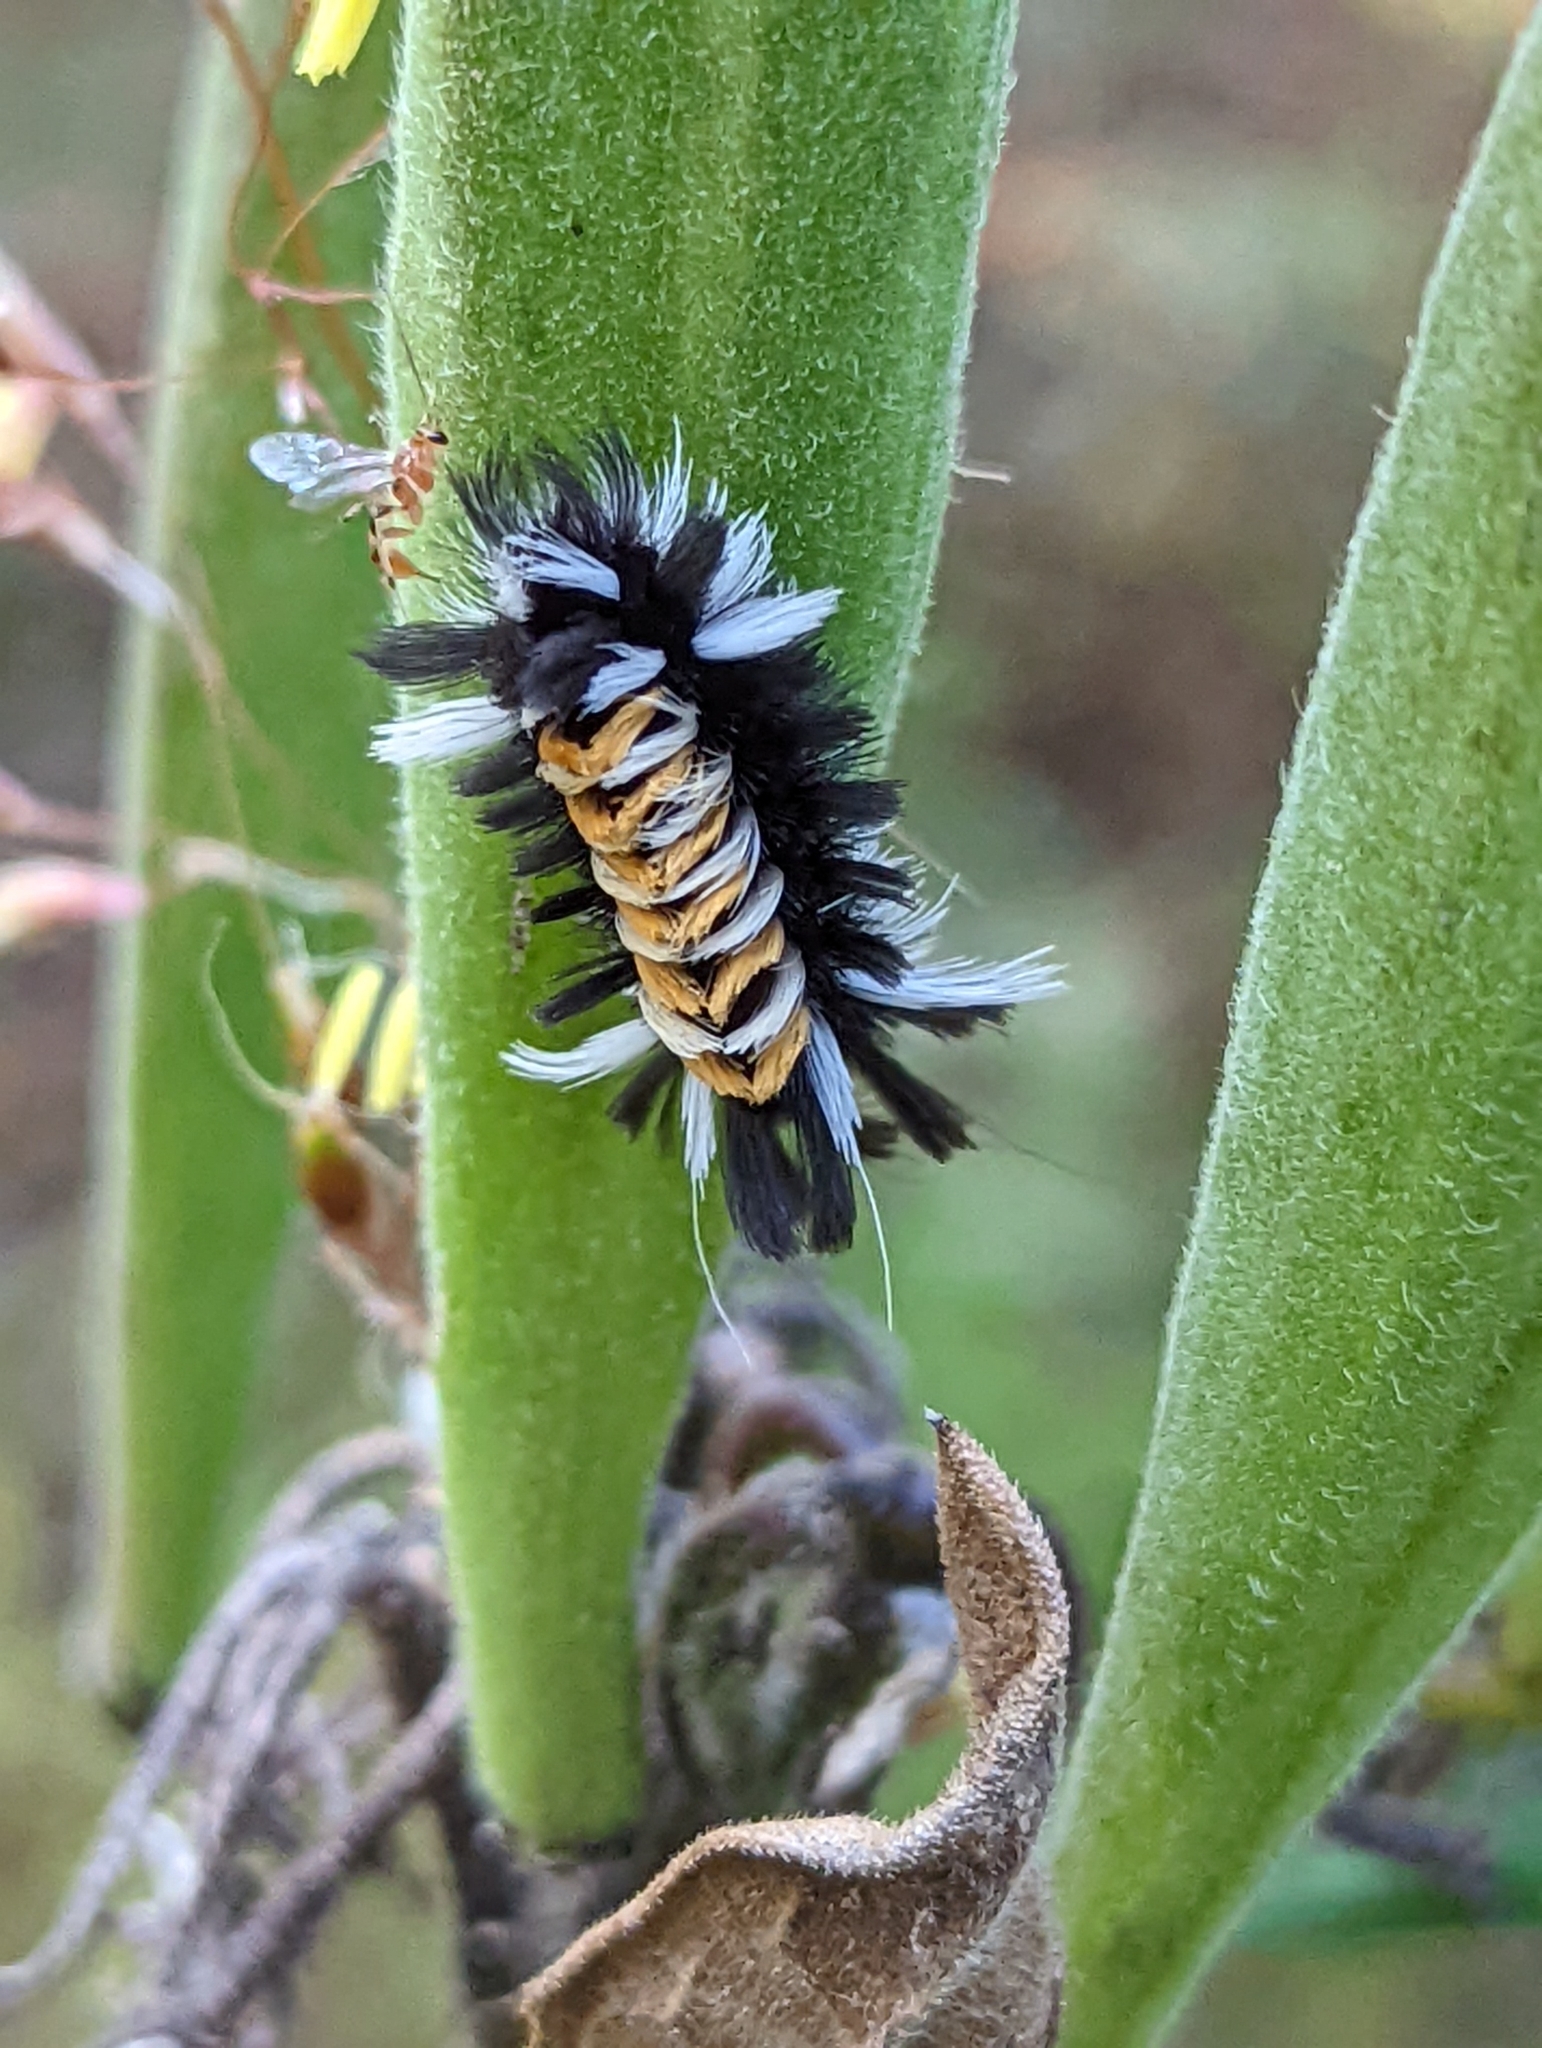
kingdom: Animalia
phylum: Arthropoda
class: Insecta
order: Lepidoptera
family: Erebidae
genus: Euchaetes
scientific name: Euchaetes egle
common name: Milkweed tussock moth
